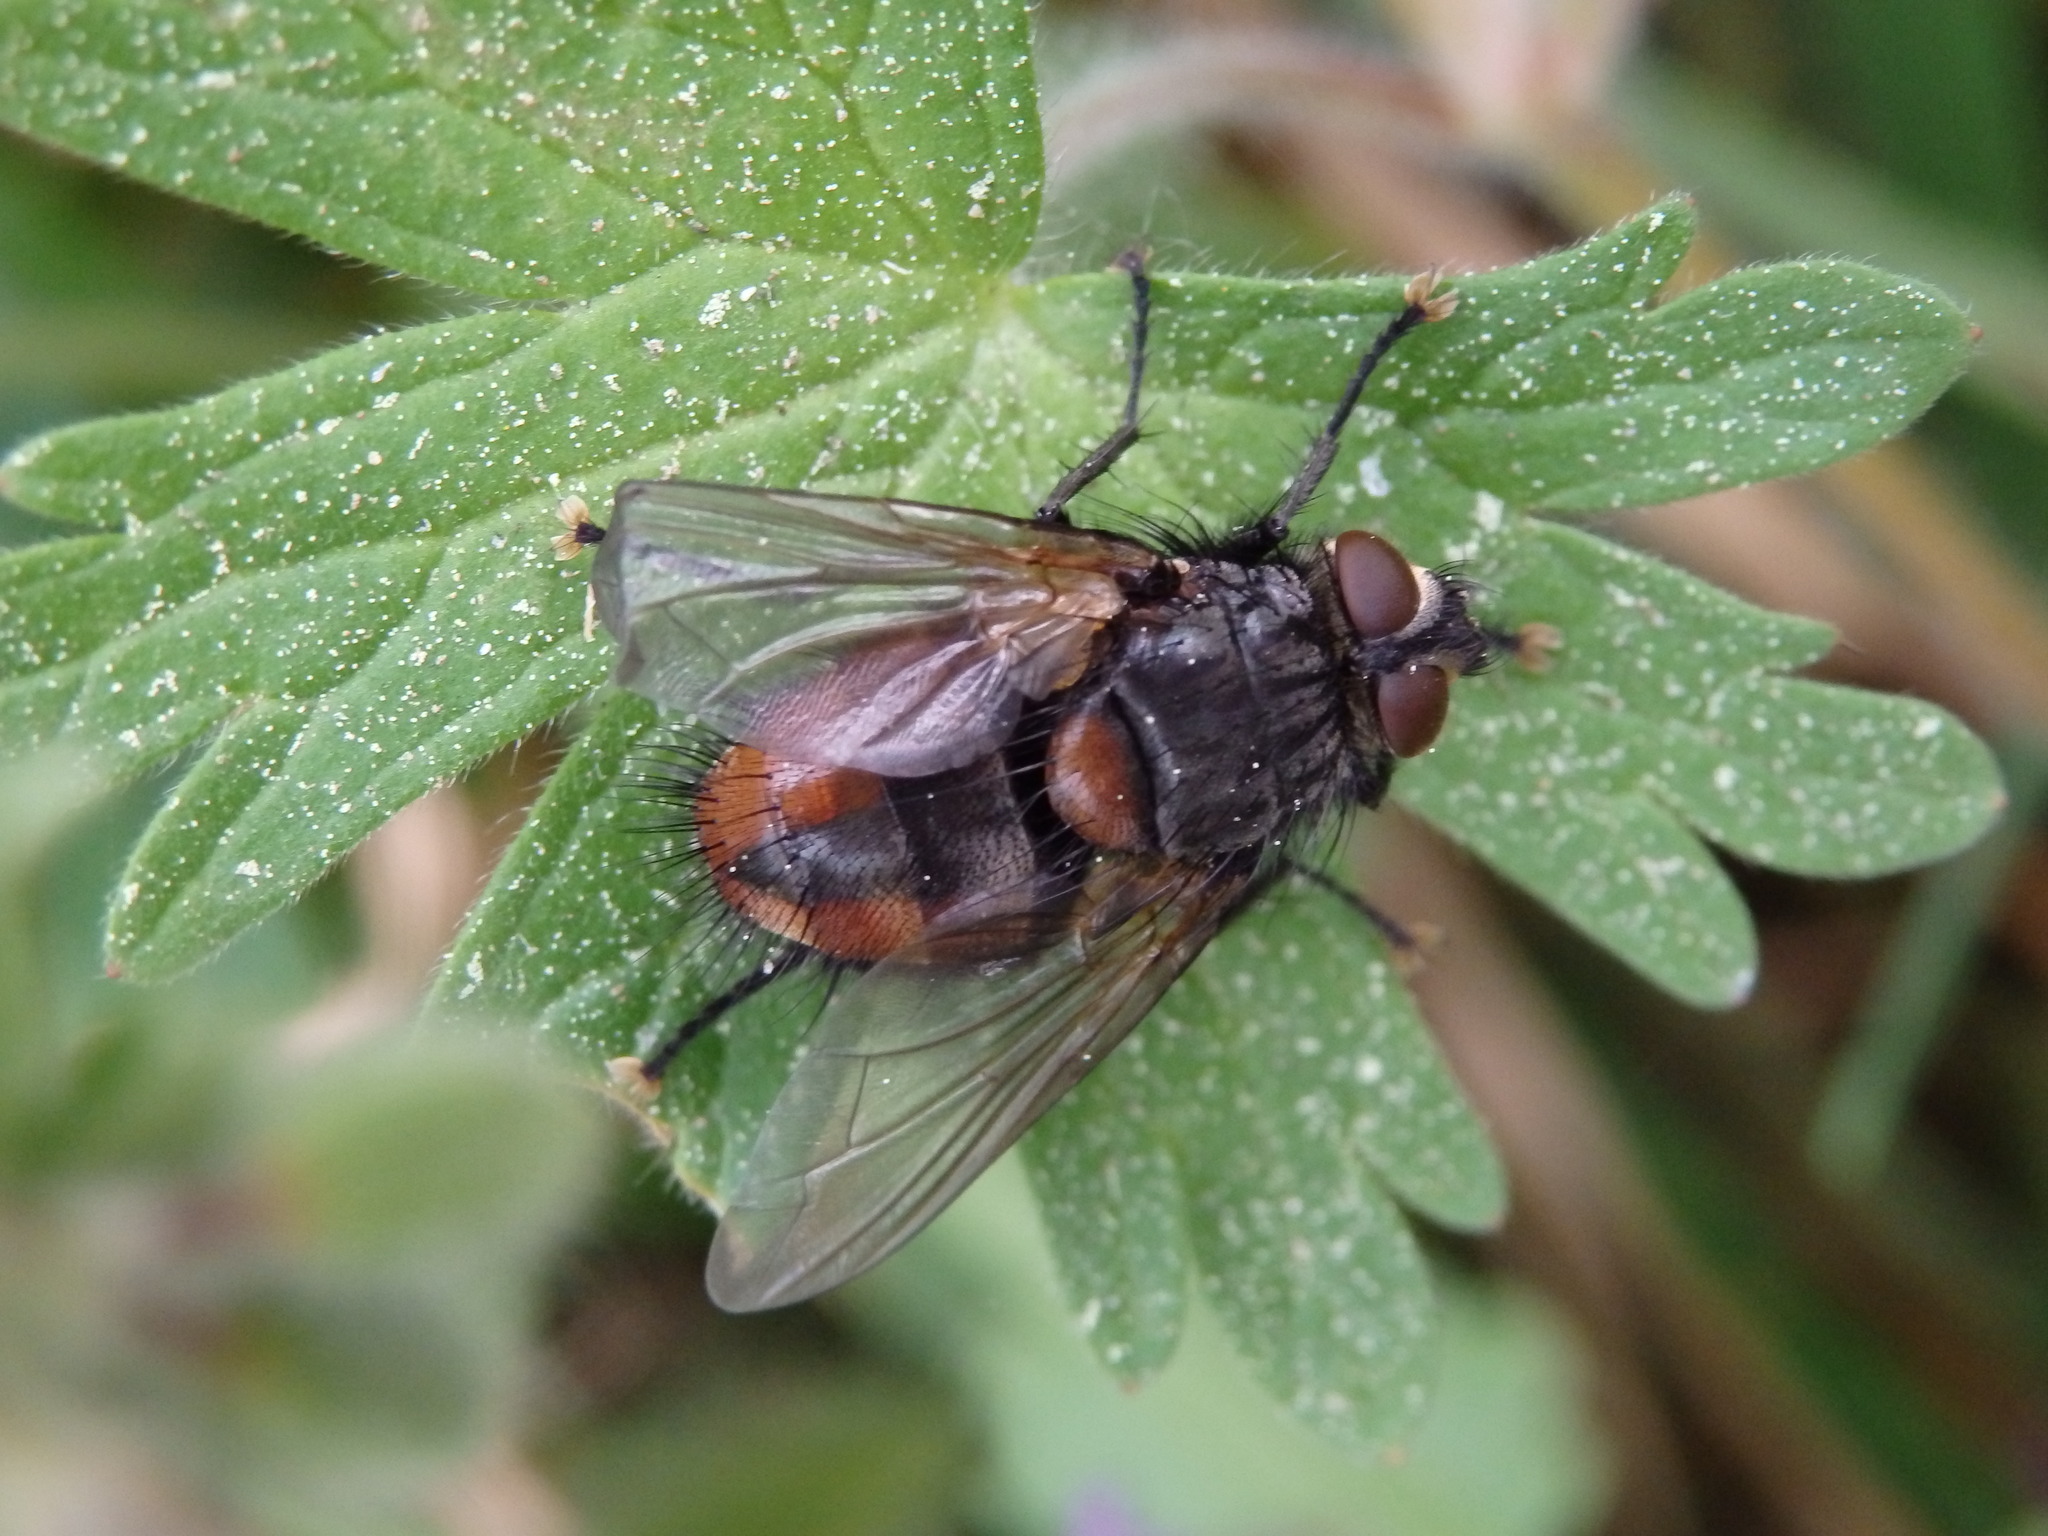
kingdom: Animalia
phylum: Arthropoda
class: Insecta
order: Diptera
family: Tachinidae
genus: Nemoraea
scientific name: Nemoraea pellucida
